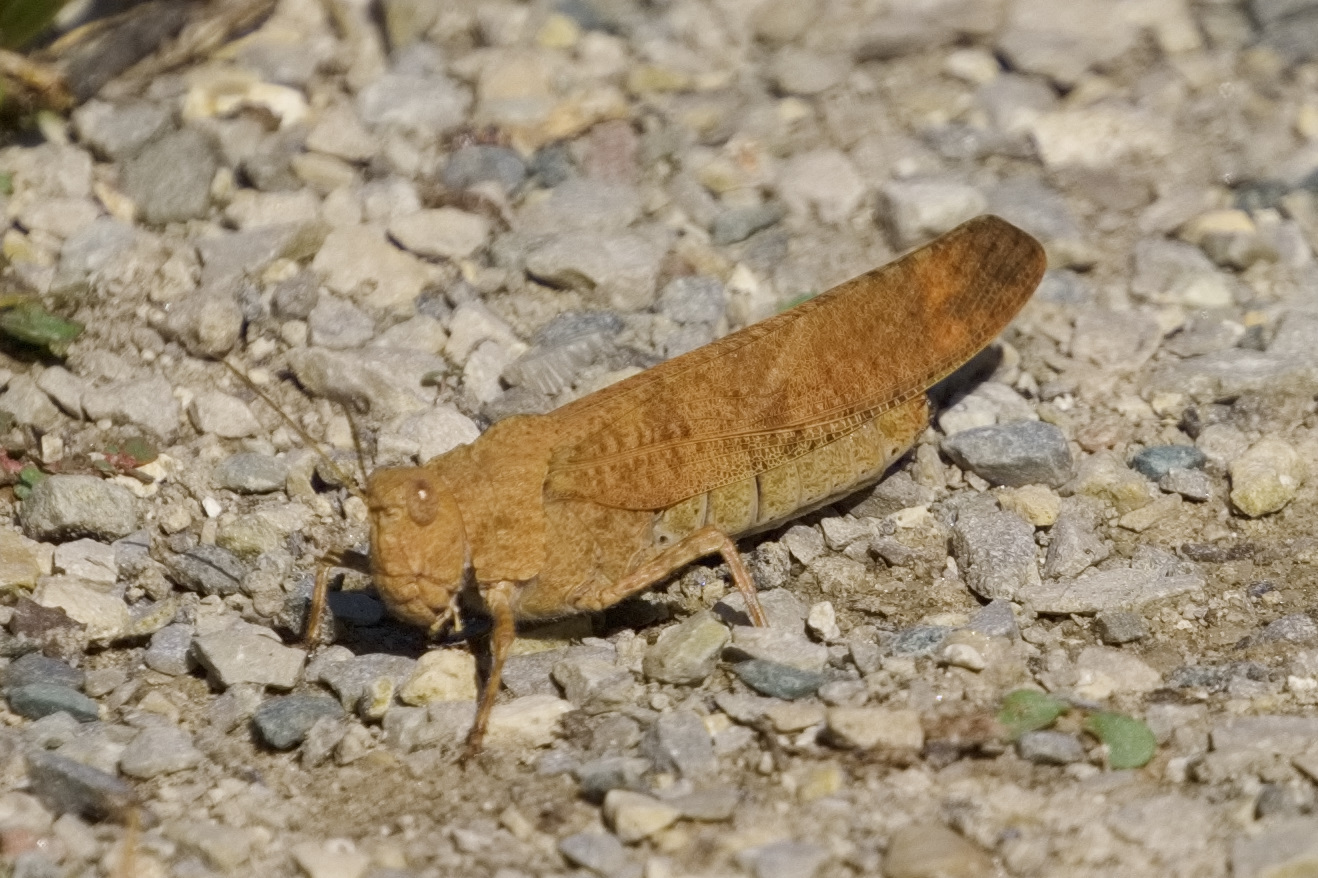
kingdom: Animalia
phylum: Arthropoda
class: Insecta
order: Orthoptera
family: Acrididae
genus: Dissosteira
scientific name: Dissosteira carolina
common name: Carolina grasshopper
